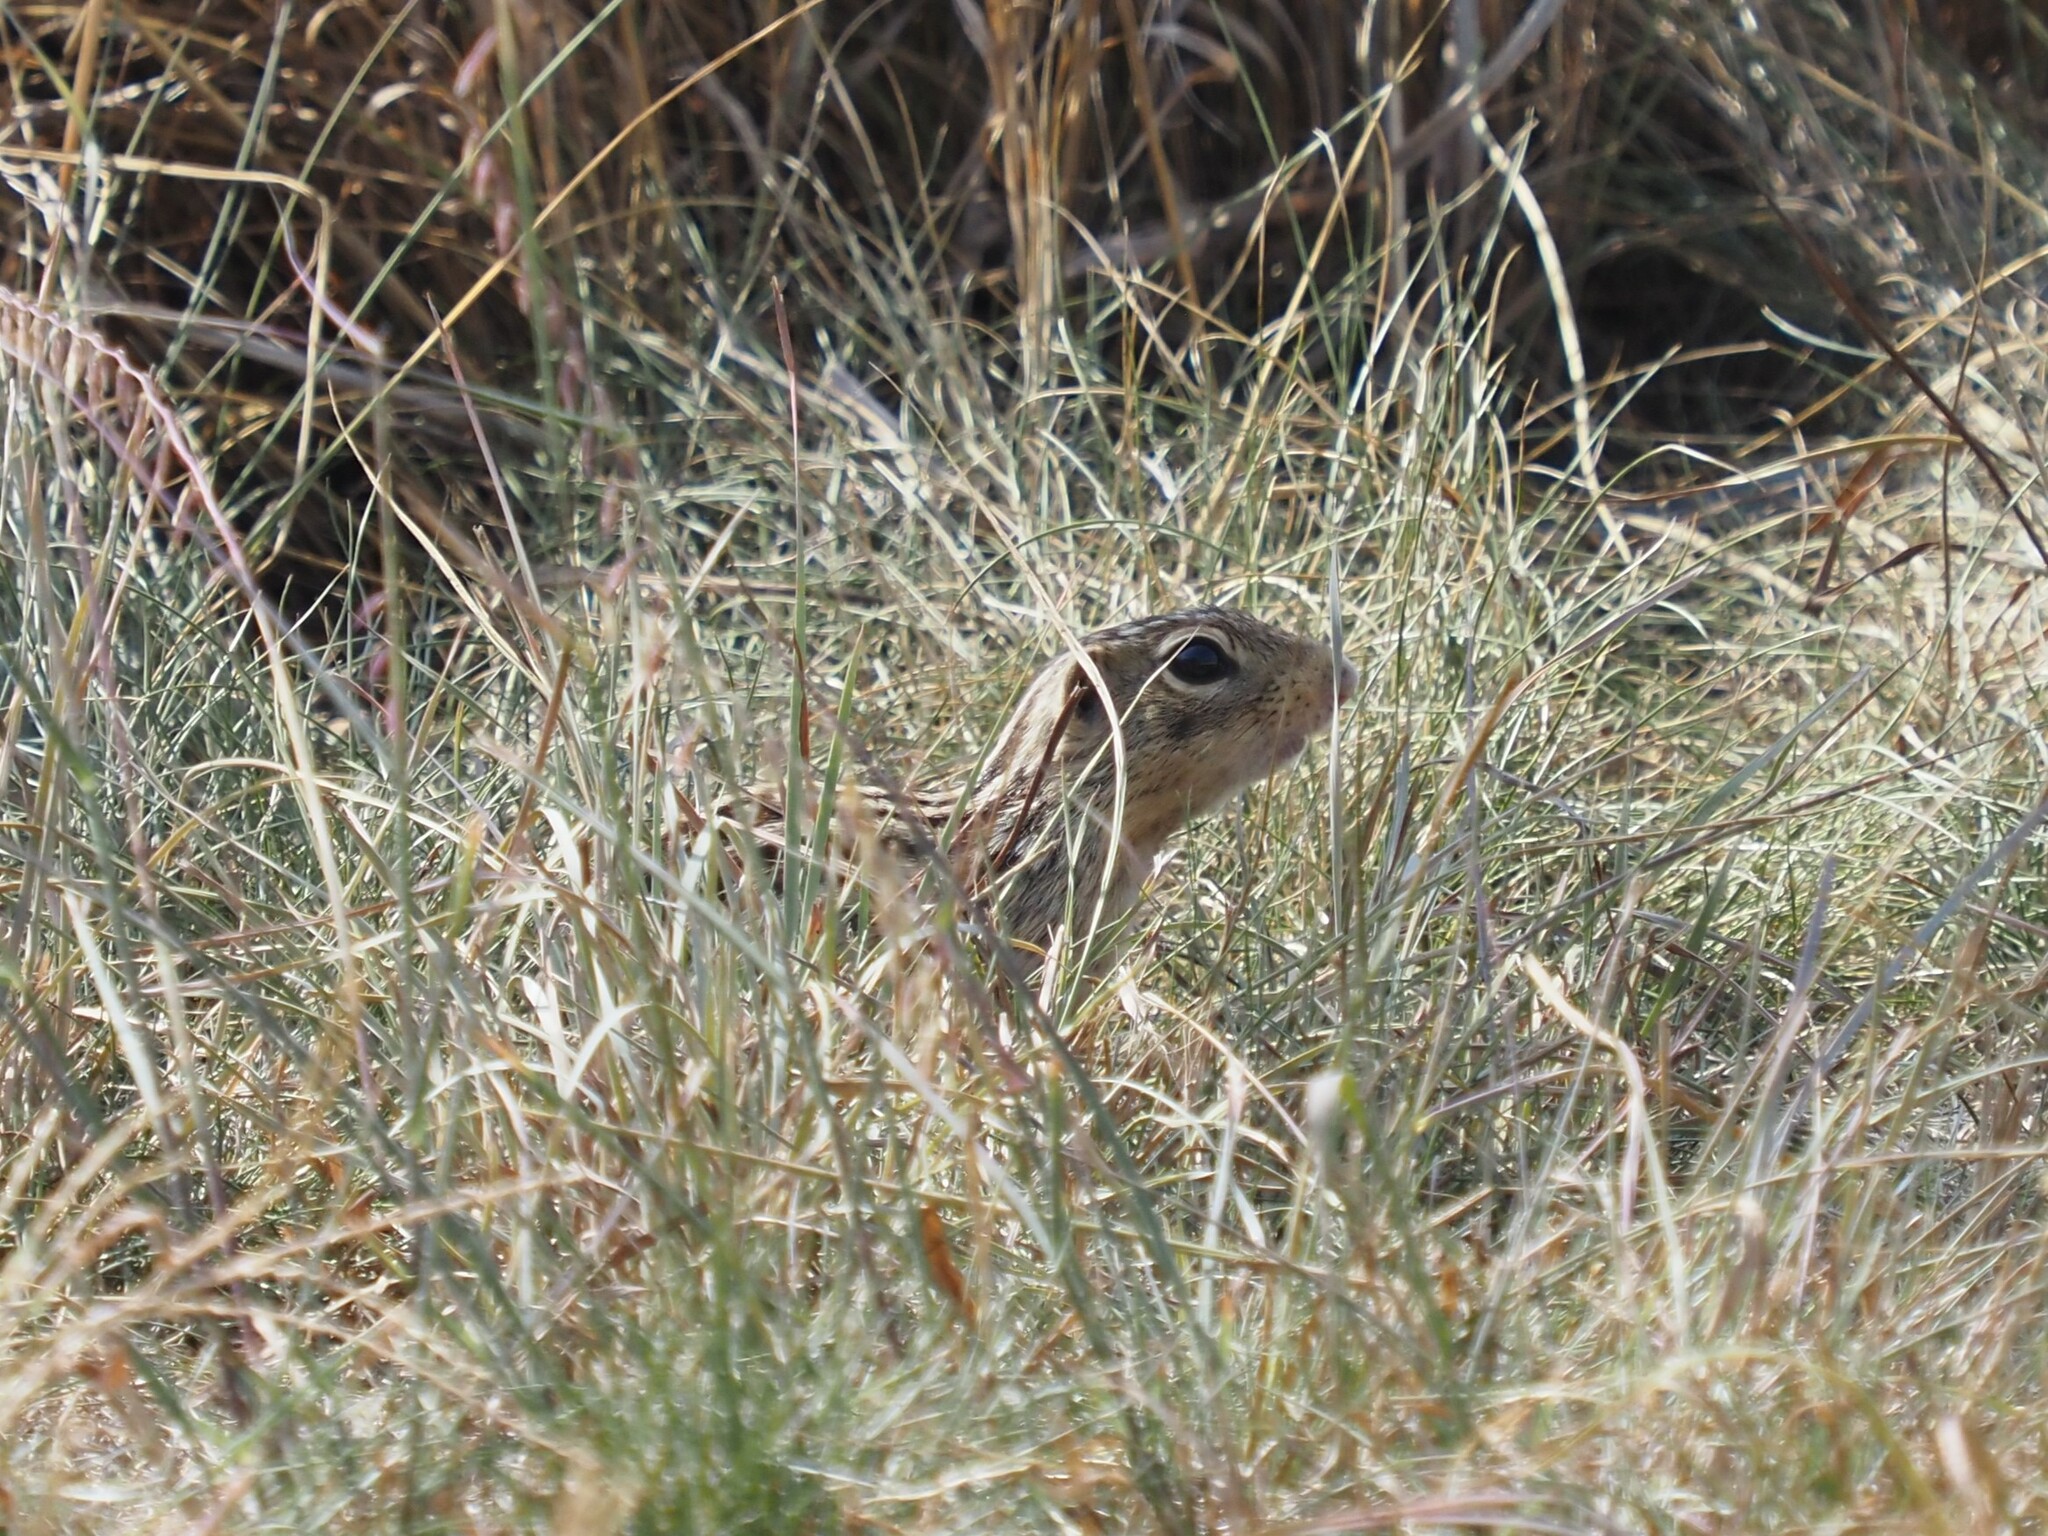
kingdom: Animalia
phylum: Chordata
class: Mammalia
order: Rodentia
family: Sciuridae
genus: Ictidomys
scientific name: Ictidomys tridecemlineatus
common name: Thirteen-lined ground squirrel
